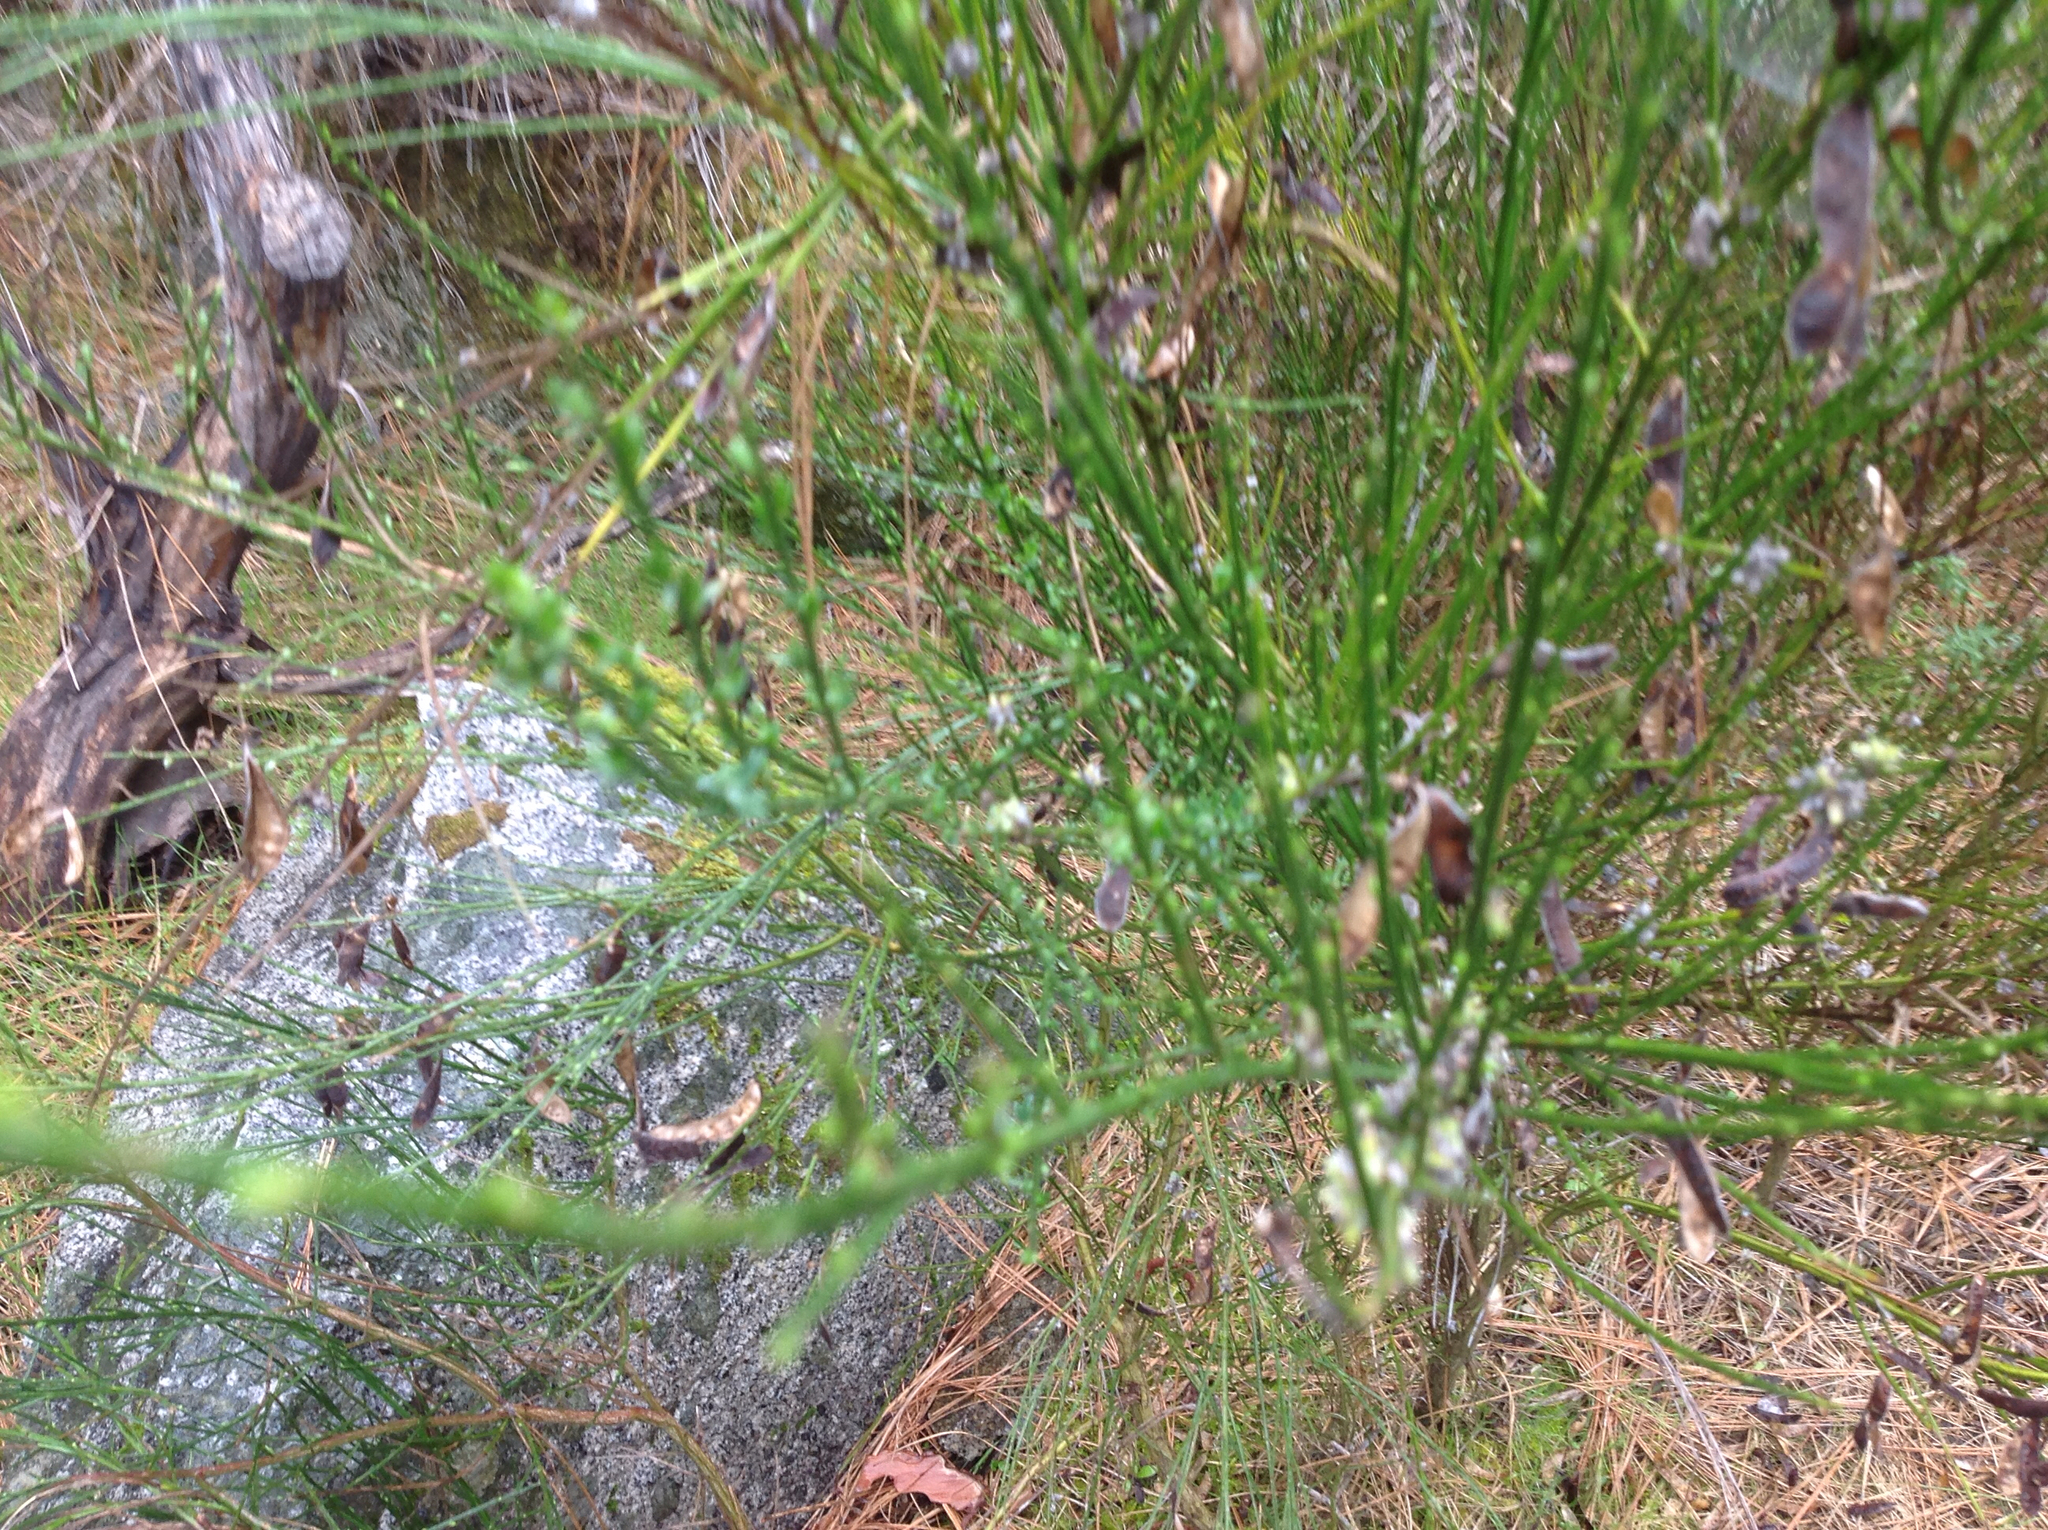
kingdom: Plantae
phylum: Tracheophyta
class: Magnoliopsida
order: Fabales
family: Fabaceae
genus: Cytisus
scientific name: Cytisus scoparius
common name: Scotch broom
